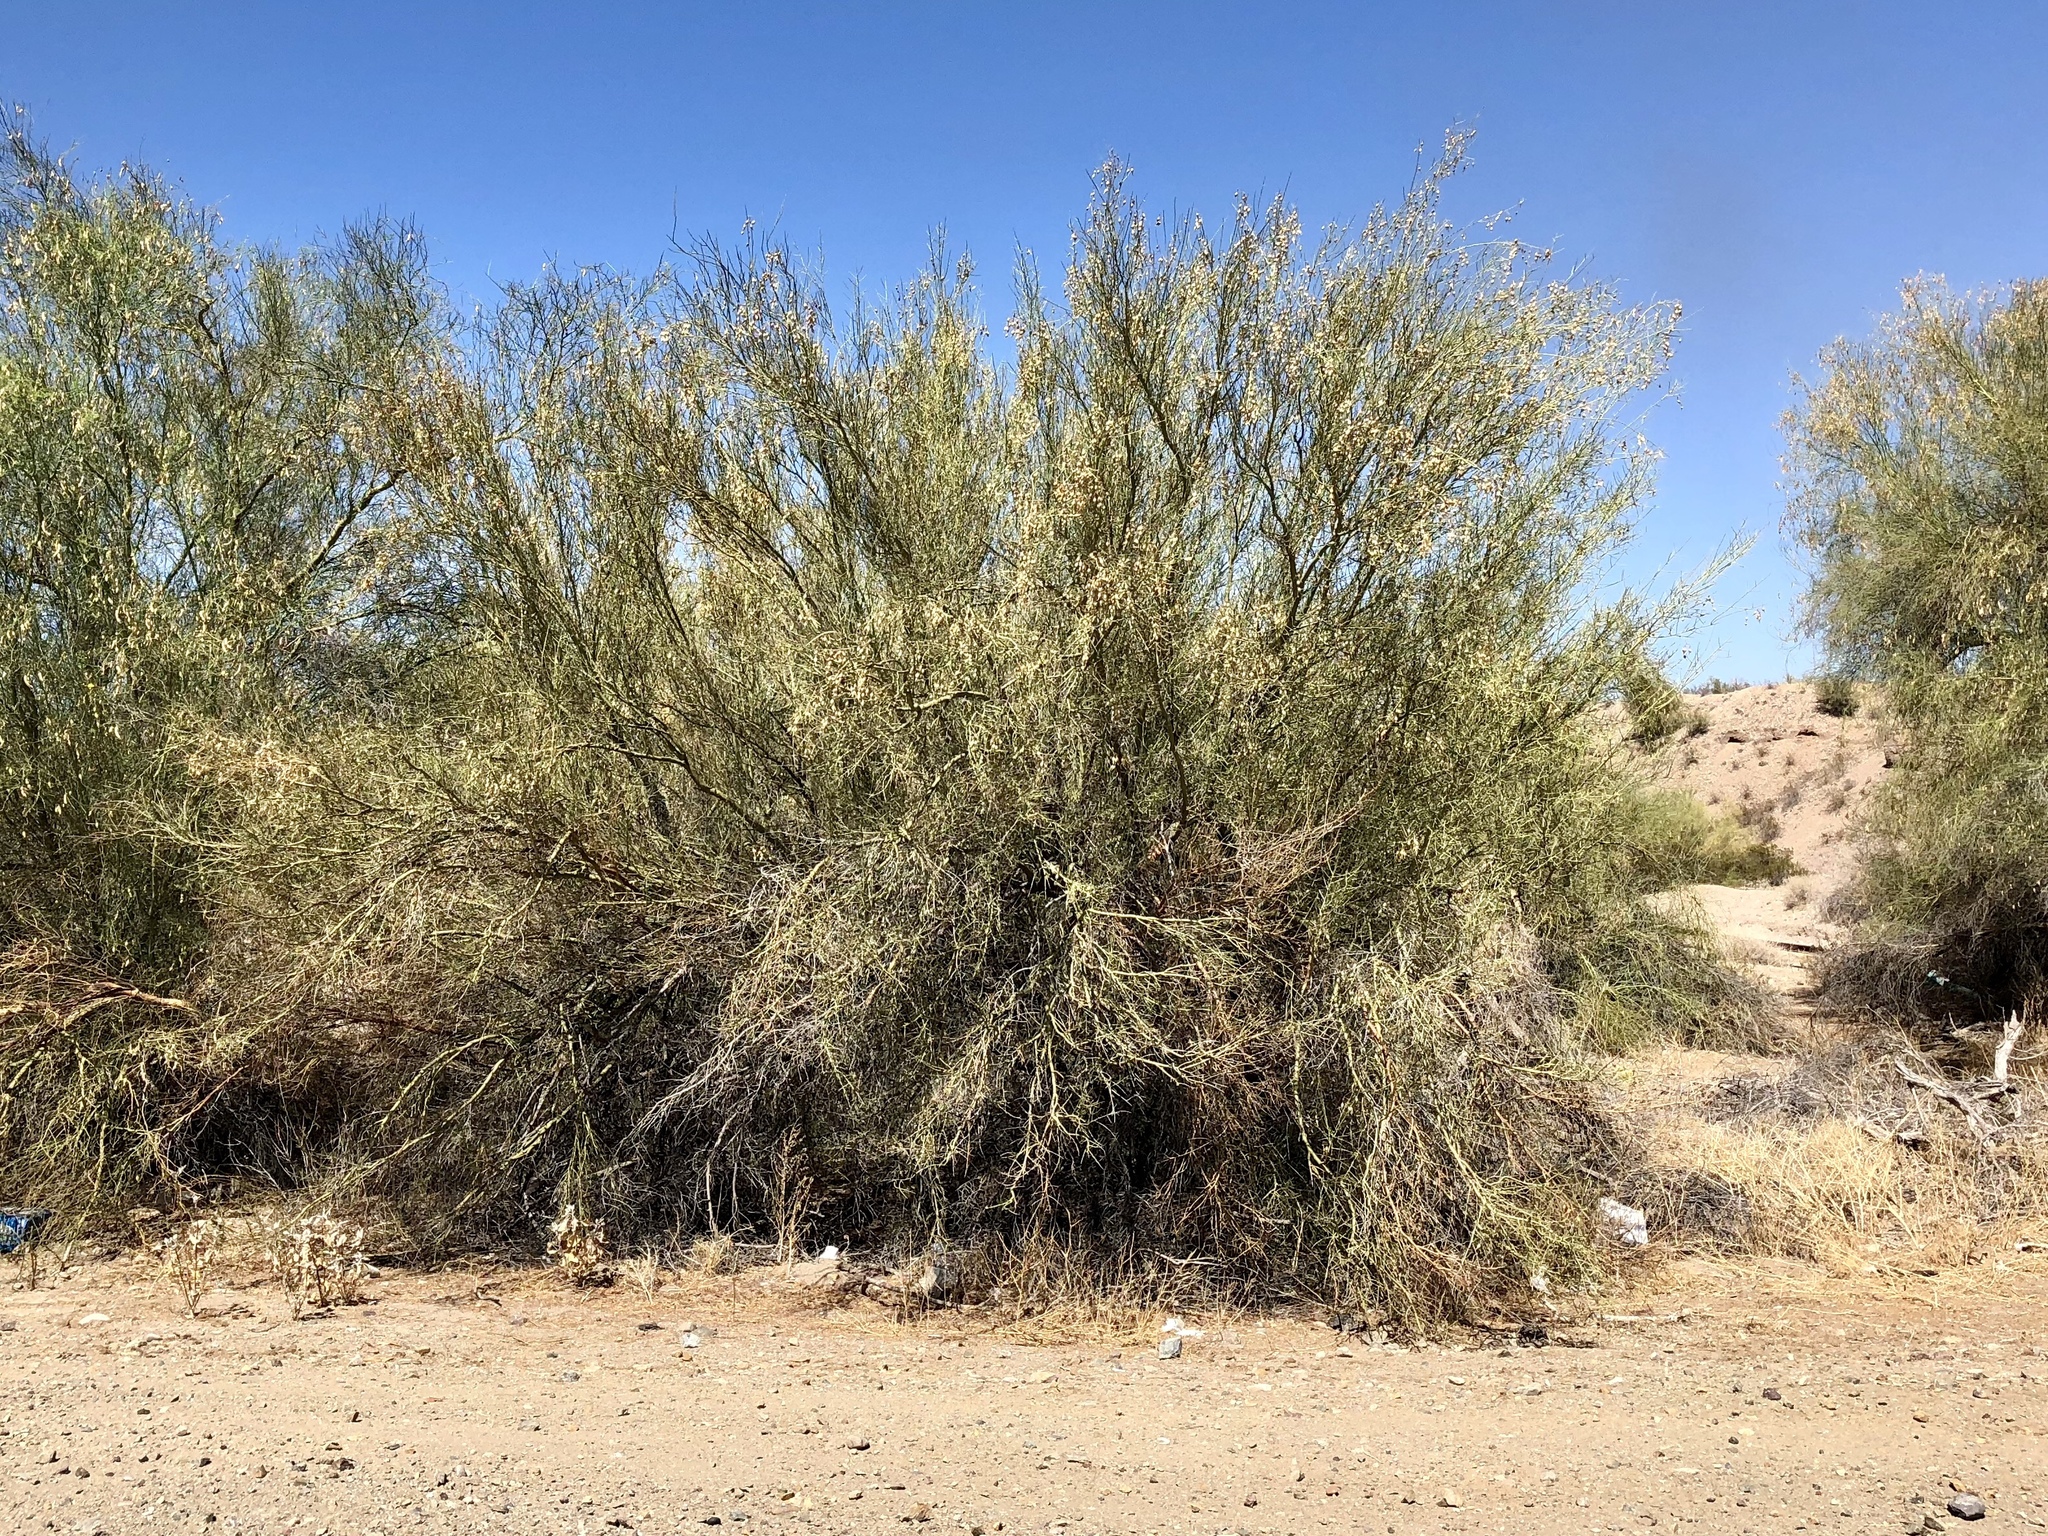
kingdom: Plantae
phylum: Tracheophyta
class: Magnoliopsida
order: Fabales
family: Fabaceae
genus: Parkinsonia
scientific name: Parkinsonia microphylla
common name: Yellow paloverde
